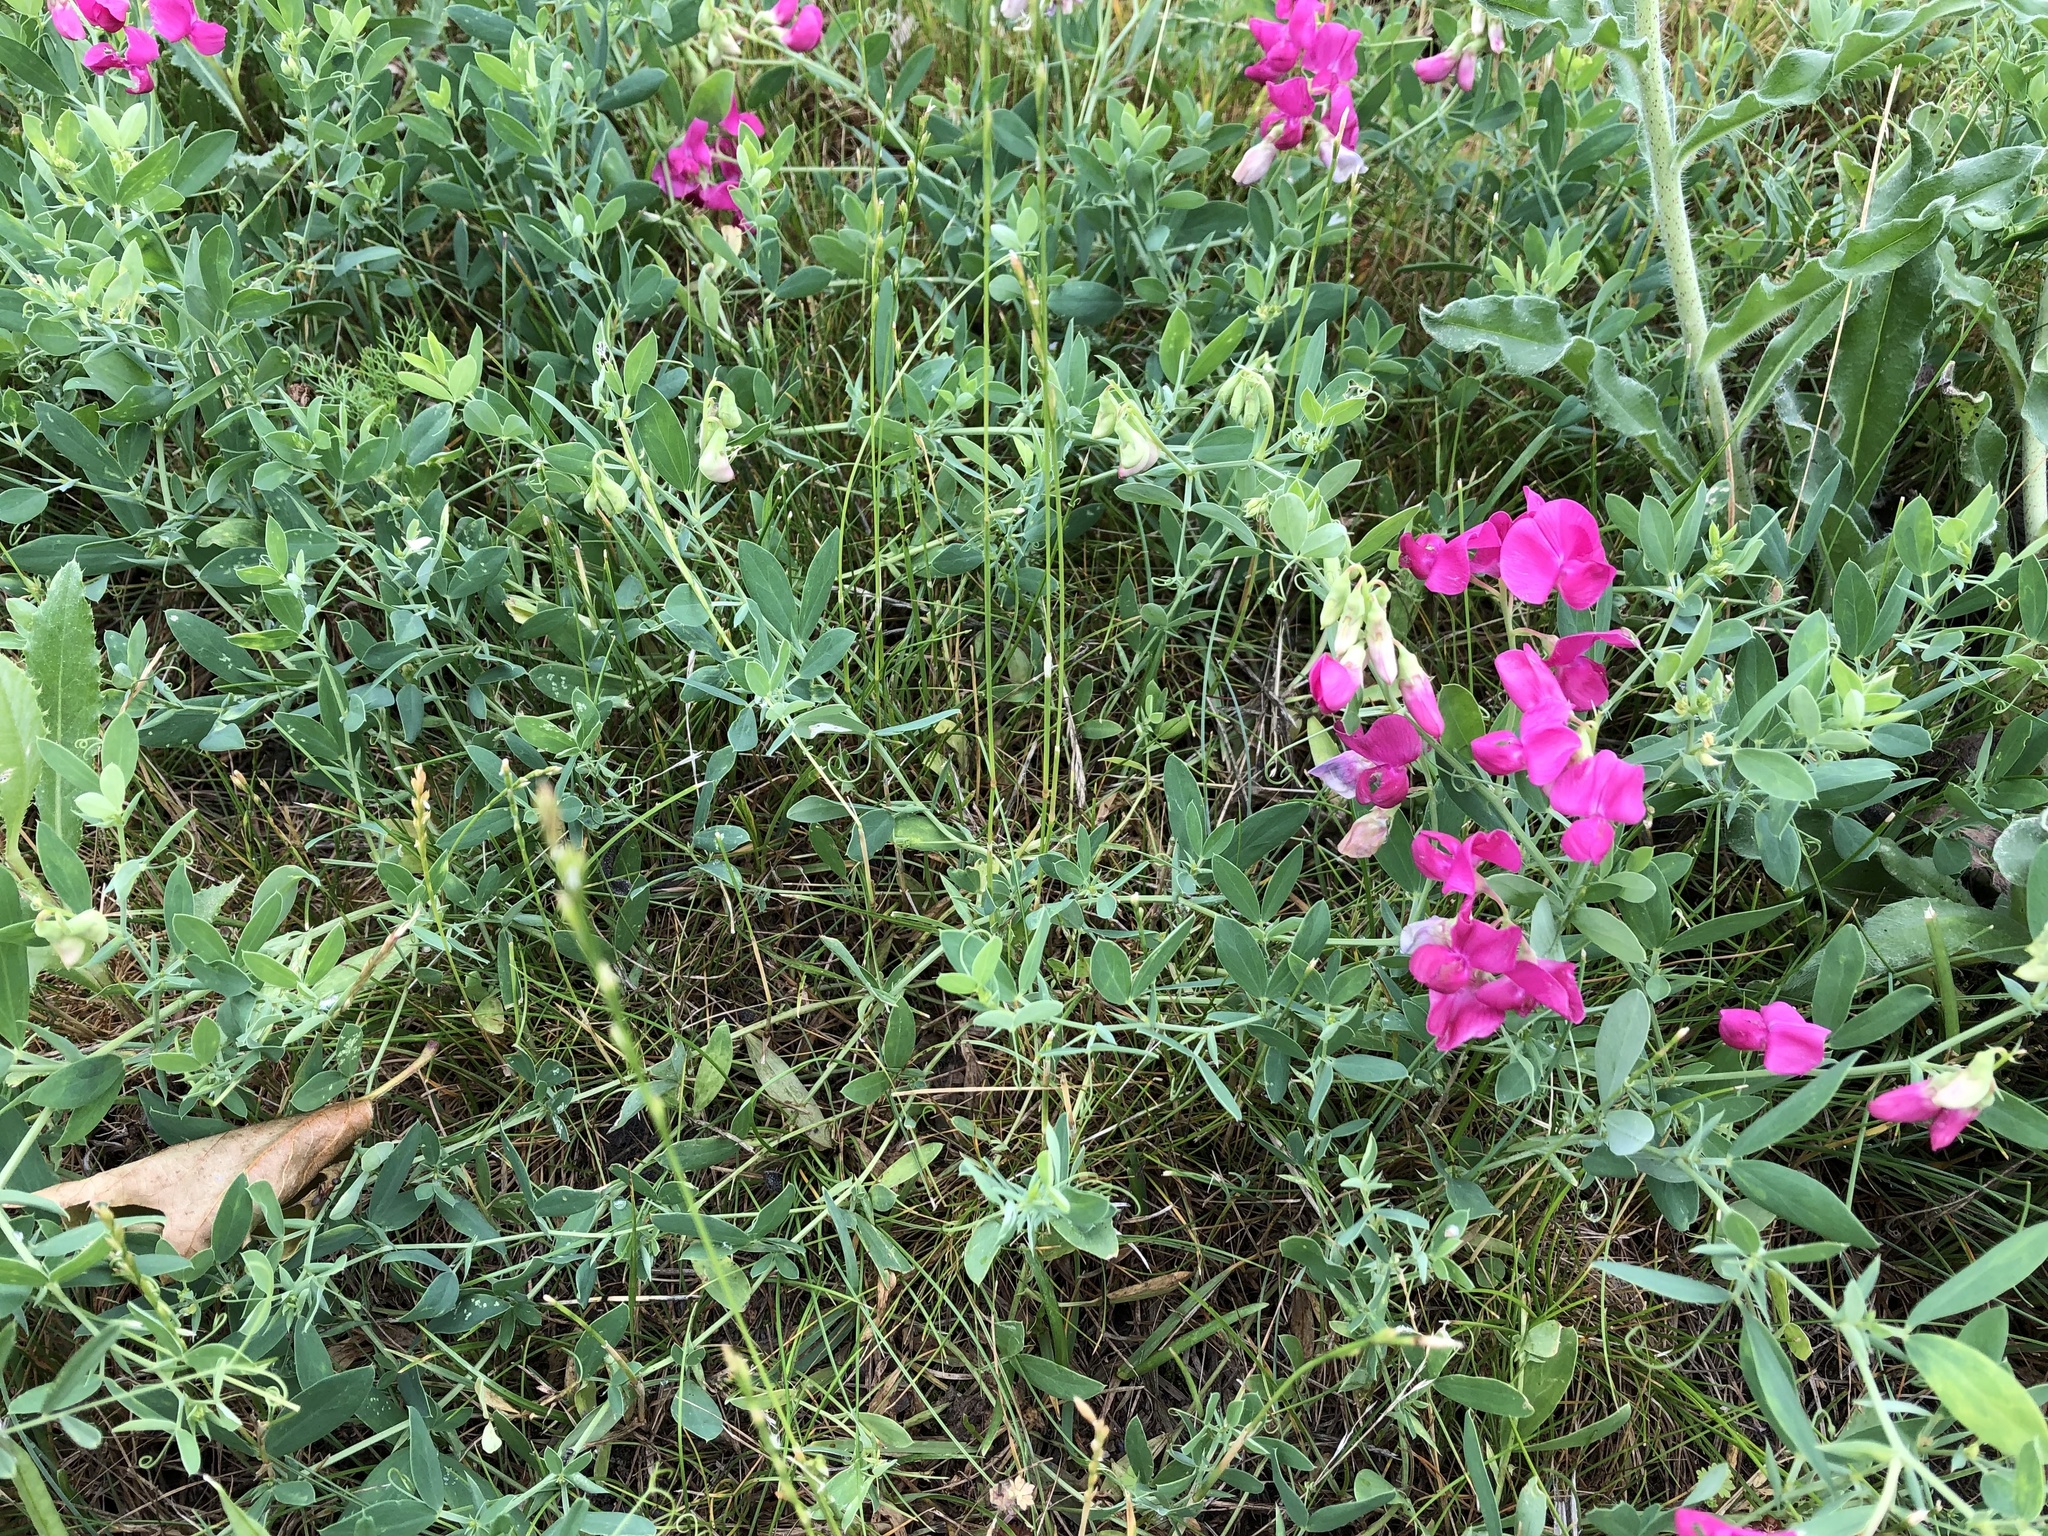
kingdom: Plantae
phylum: Tracheophyta
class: Magnoliopsida
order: Fabales
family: Fabaceae
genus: Lathyrus
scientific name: Lathyrus tuberosus
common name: Tuberous pea
